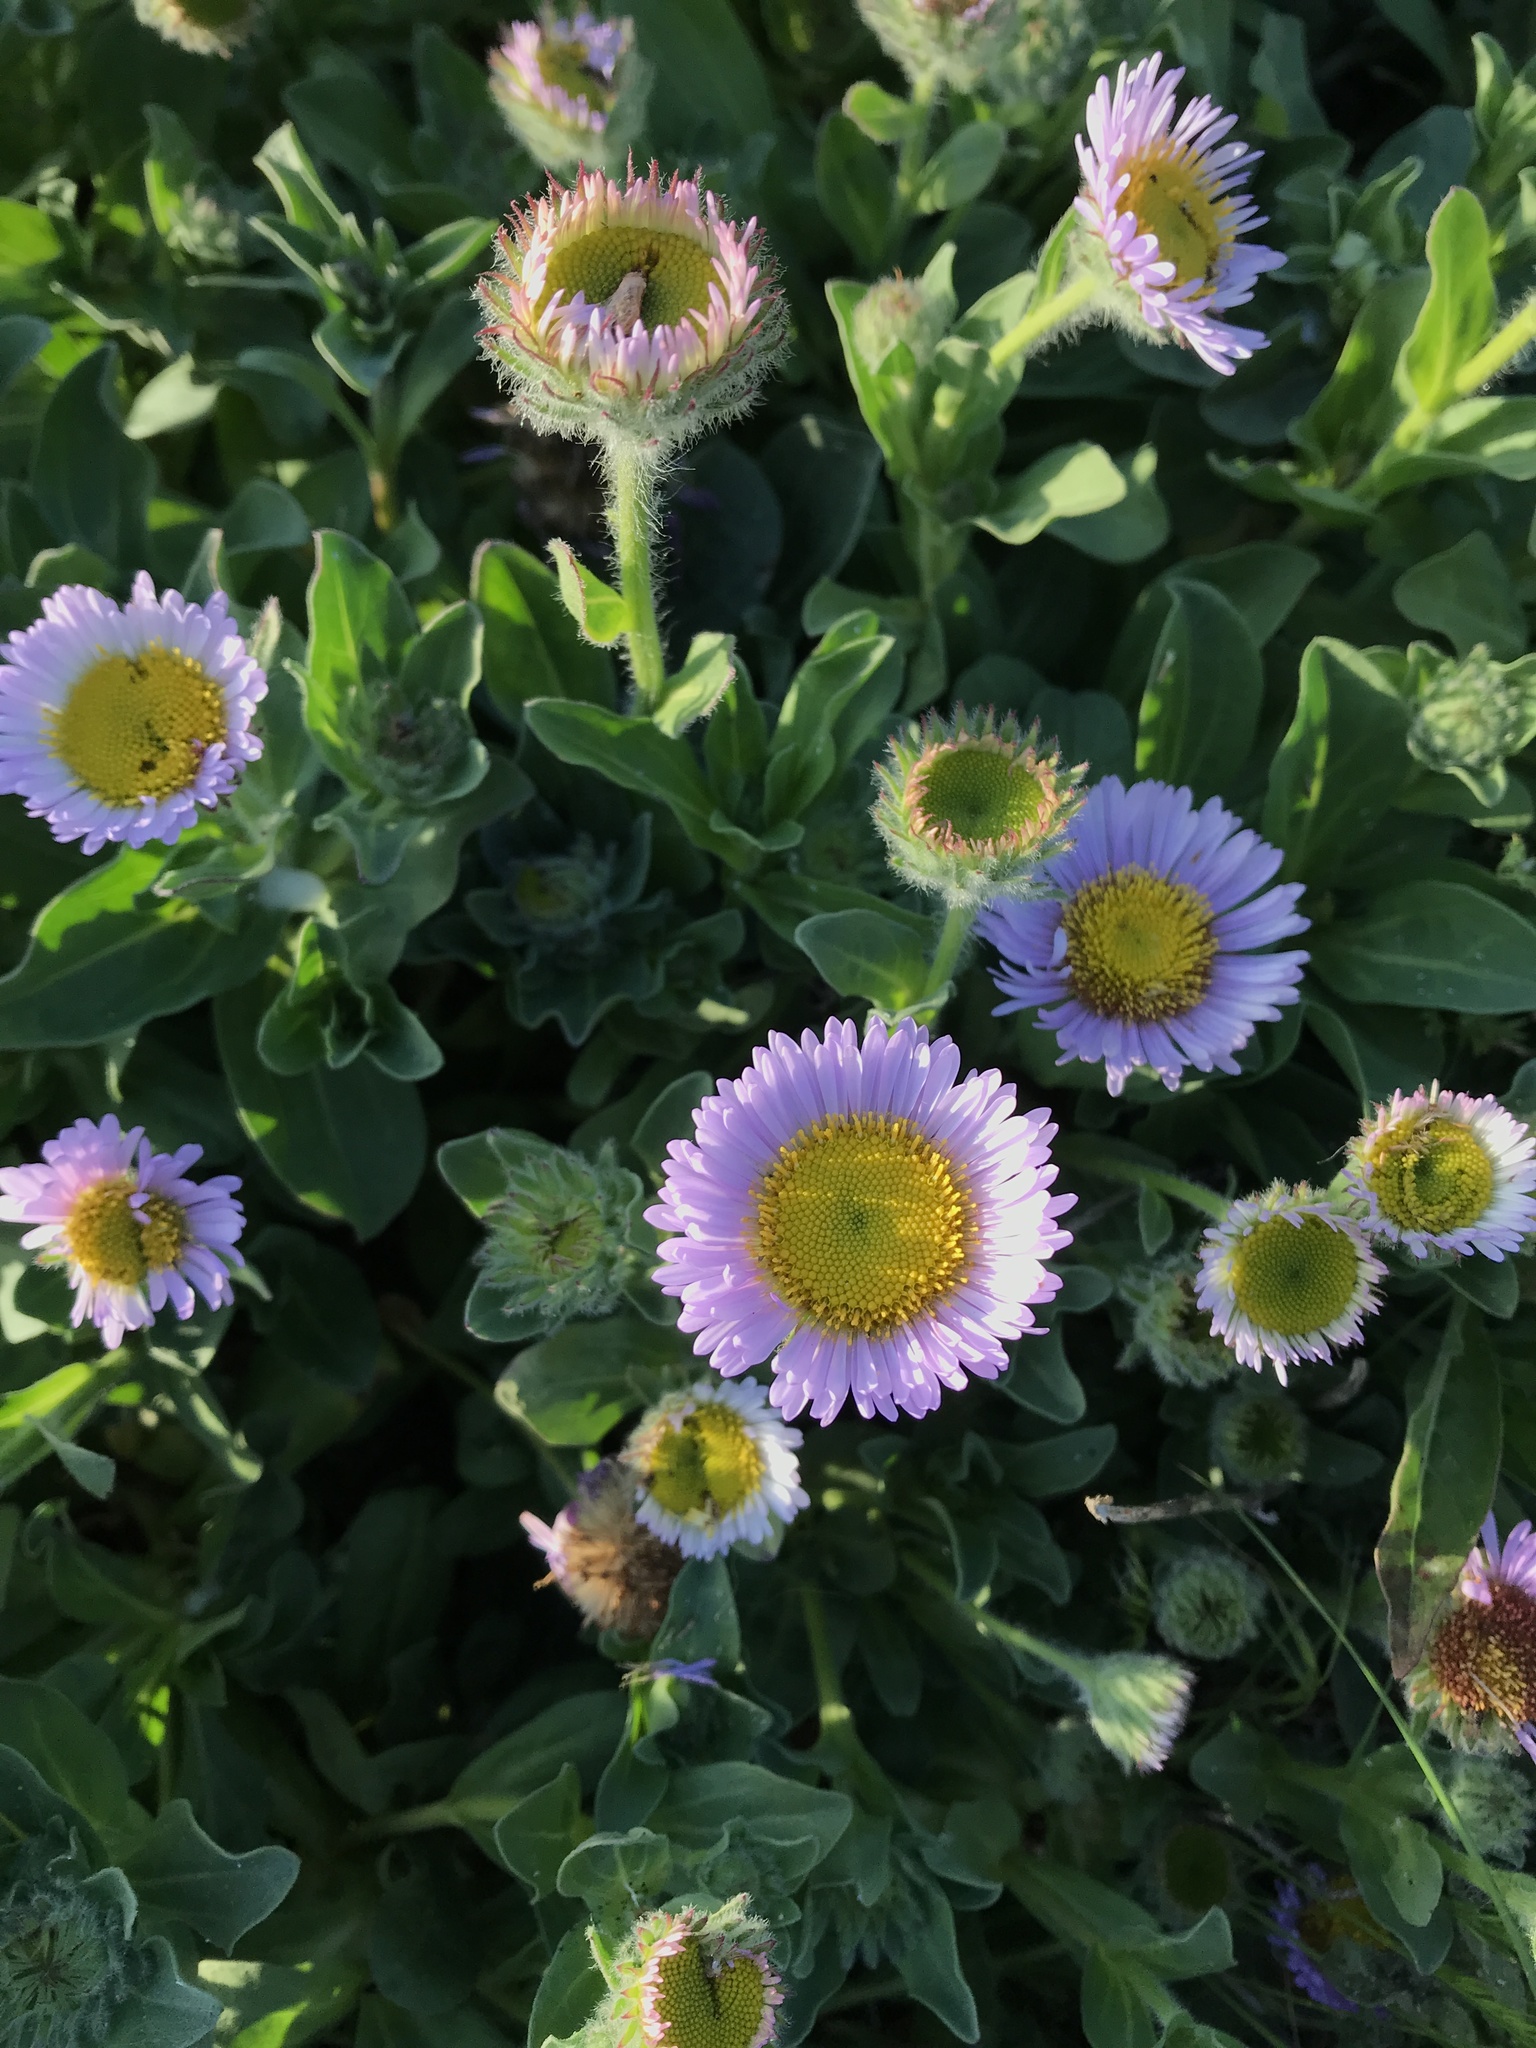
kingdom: Plantae
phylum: Tracheophyta
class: Magnoliopsida
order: Asterales
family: Asteraceae
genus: Erigeron
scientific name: Erigeron glaucus
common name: Seaside daisy
